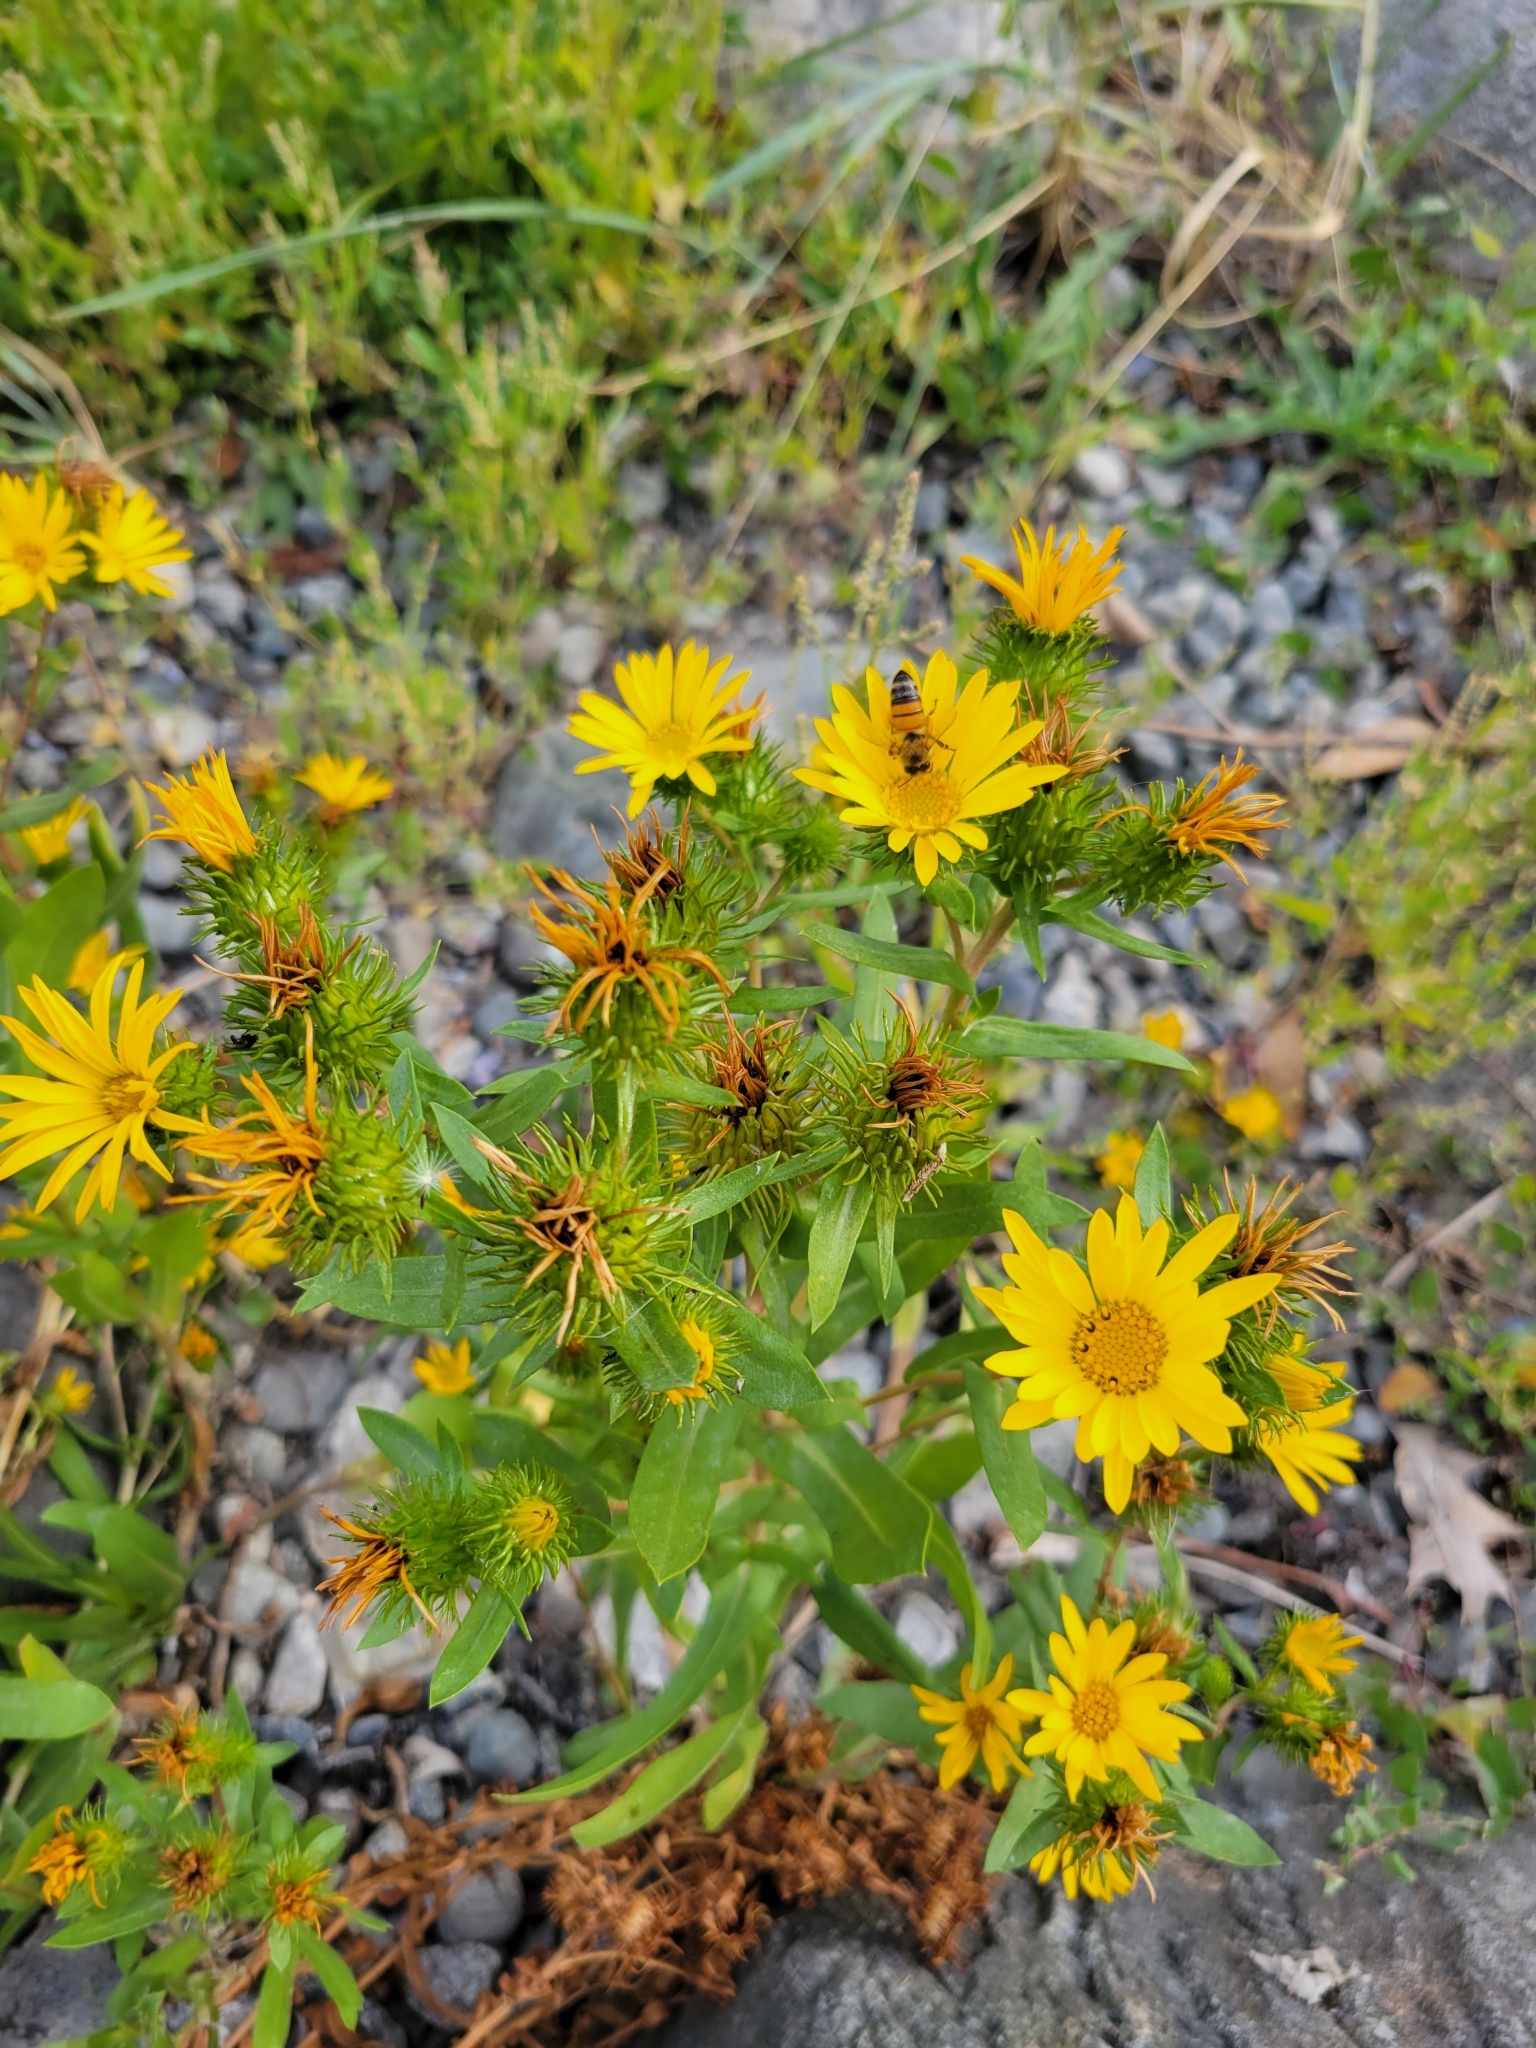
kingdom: Plantae
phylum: Tracheophyta
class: Magnoliopsida
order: Asterales
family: Asteraceae
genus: Grindelia
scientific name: Grindelia hirsutula
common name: Hairy gumweed
